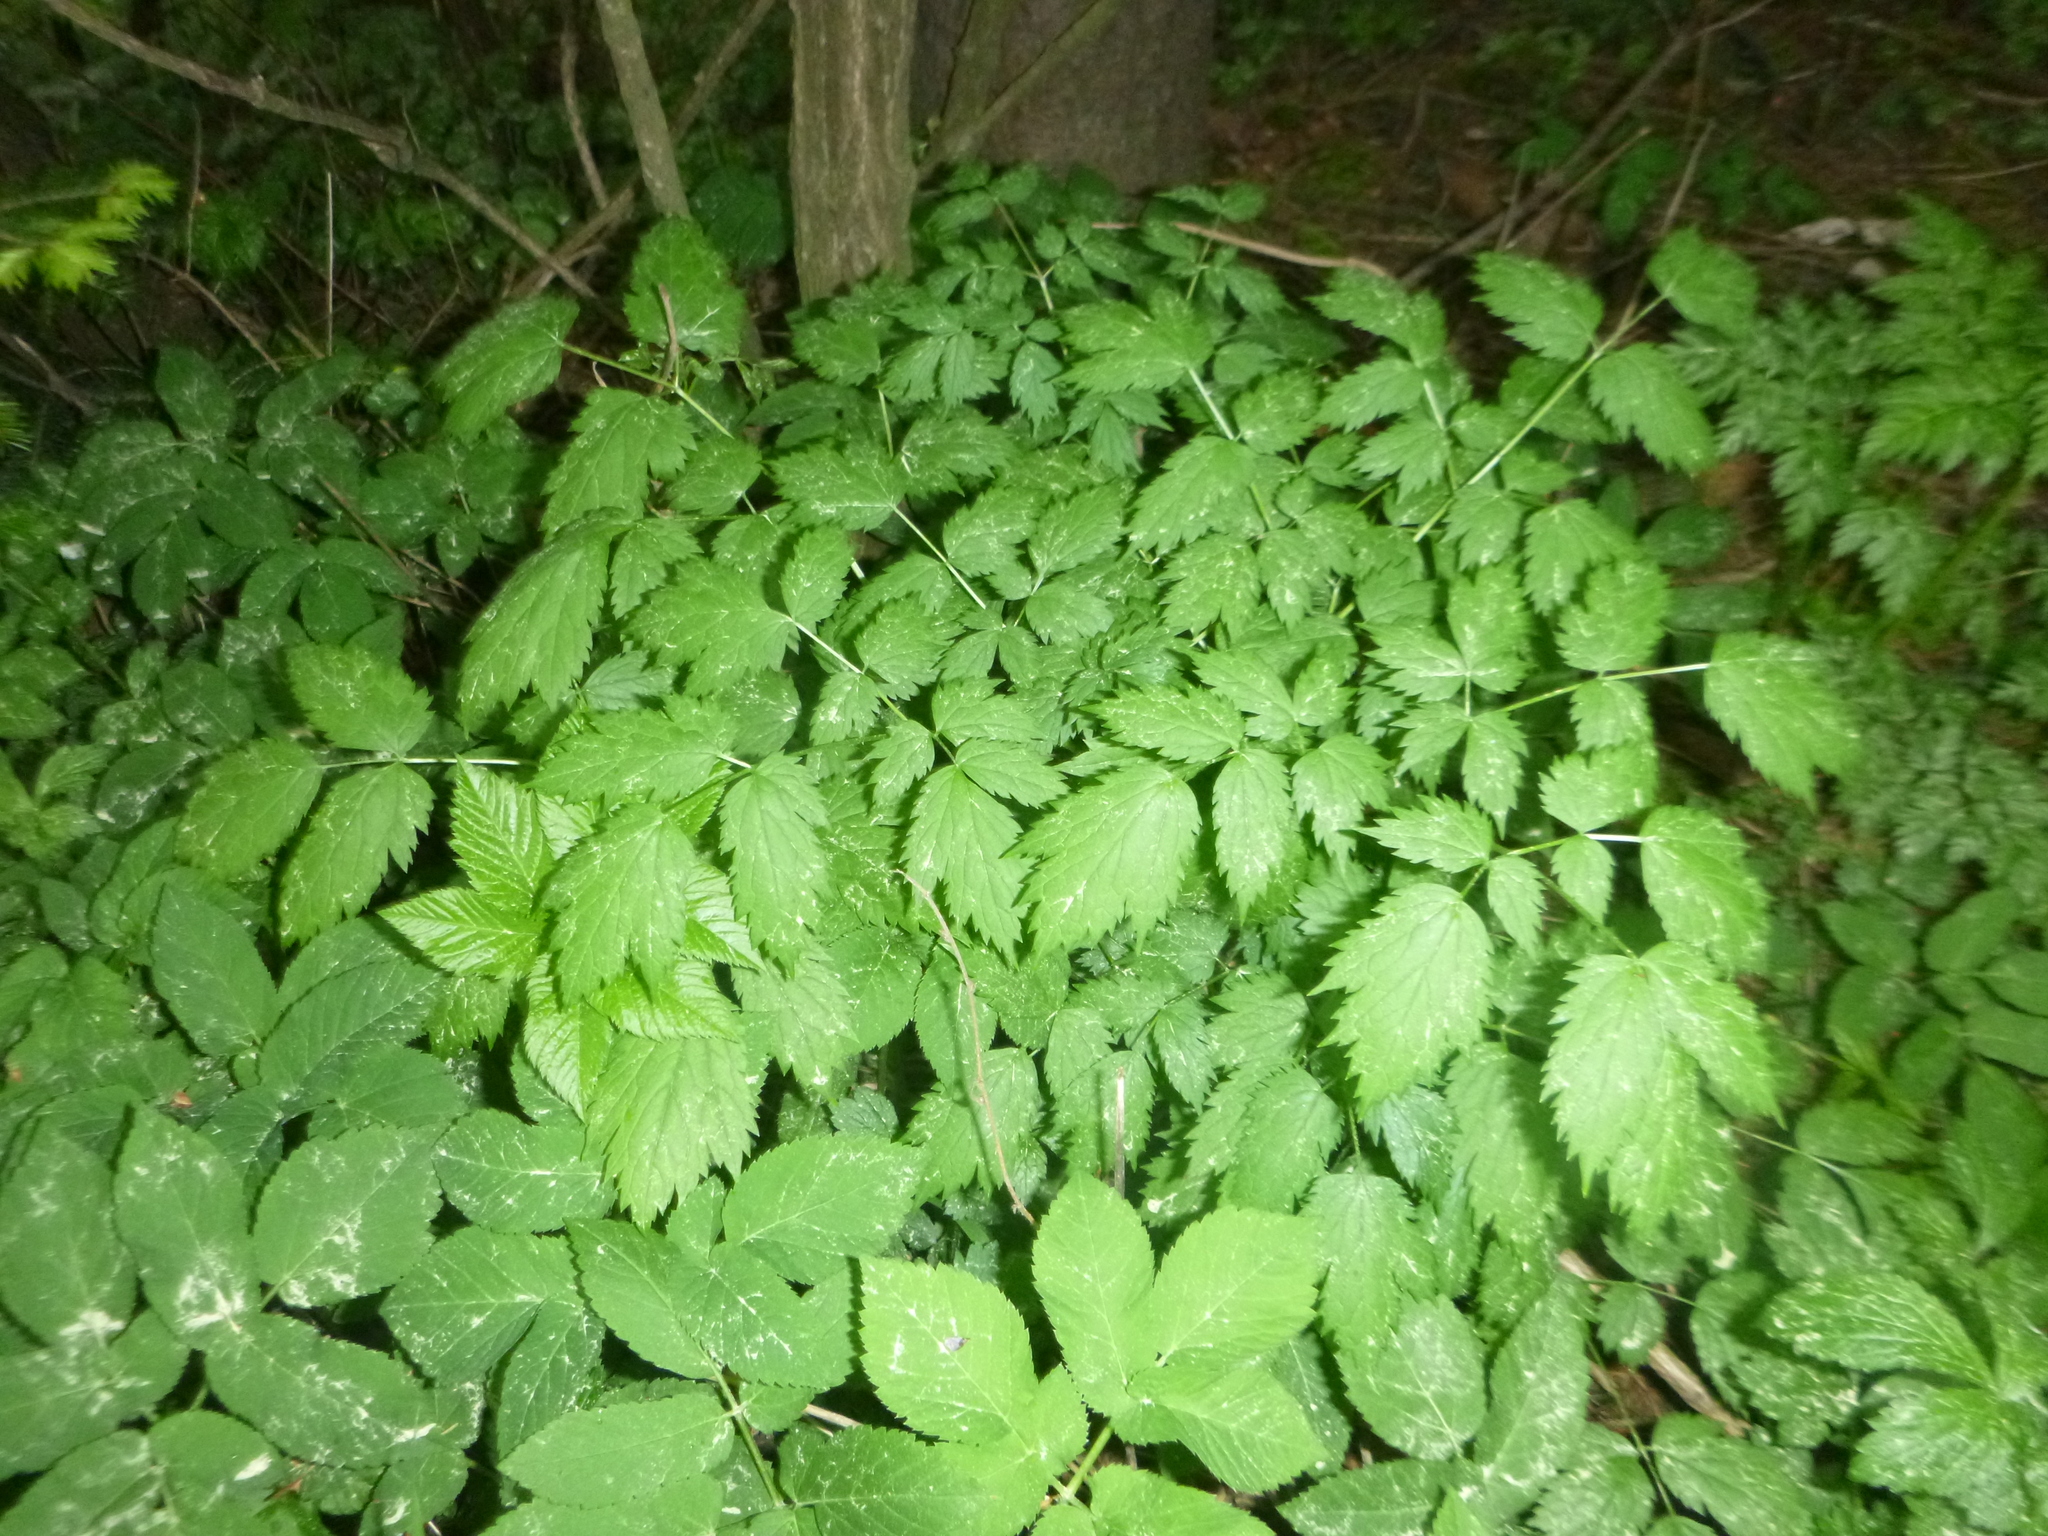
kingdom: Plantae
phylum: Tracheophyta
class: Magnoliopsida
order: Ranunculales
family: Ranunculaceae
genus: Actaea
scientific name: Actaea spicata
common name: Baneberry
